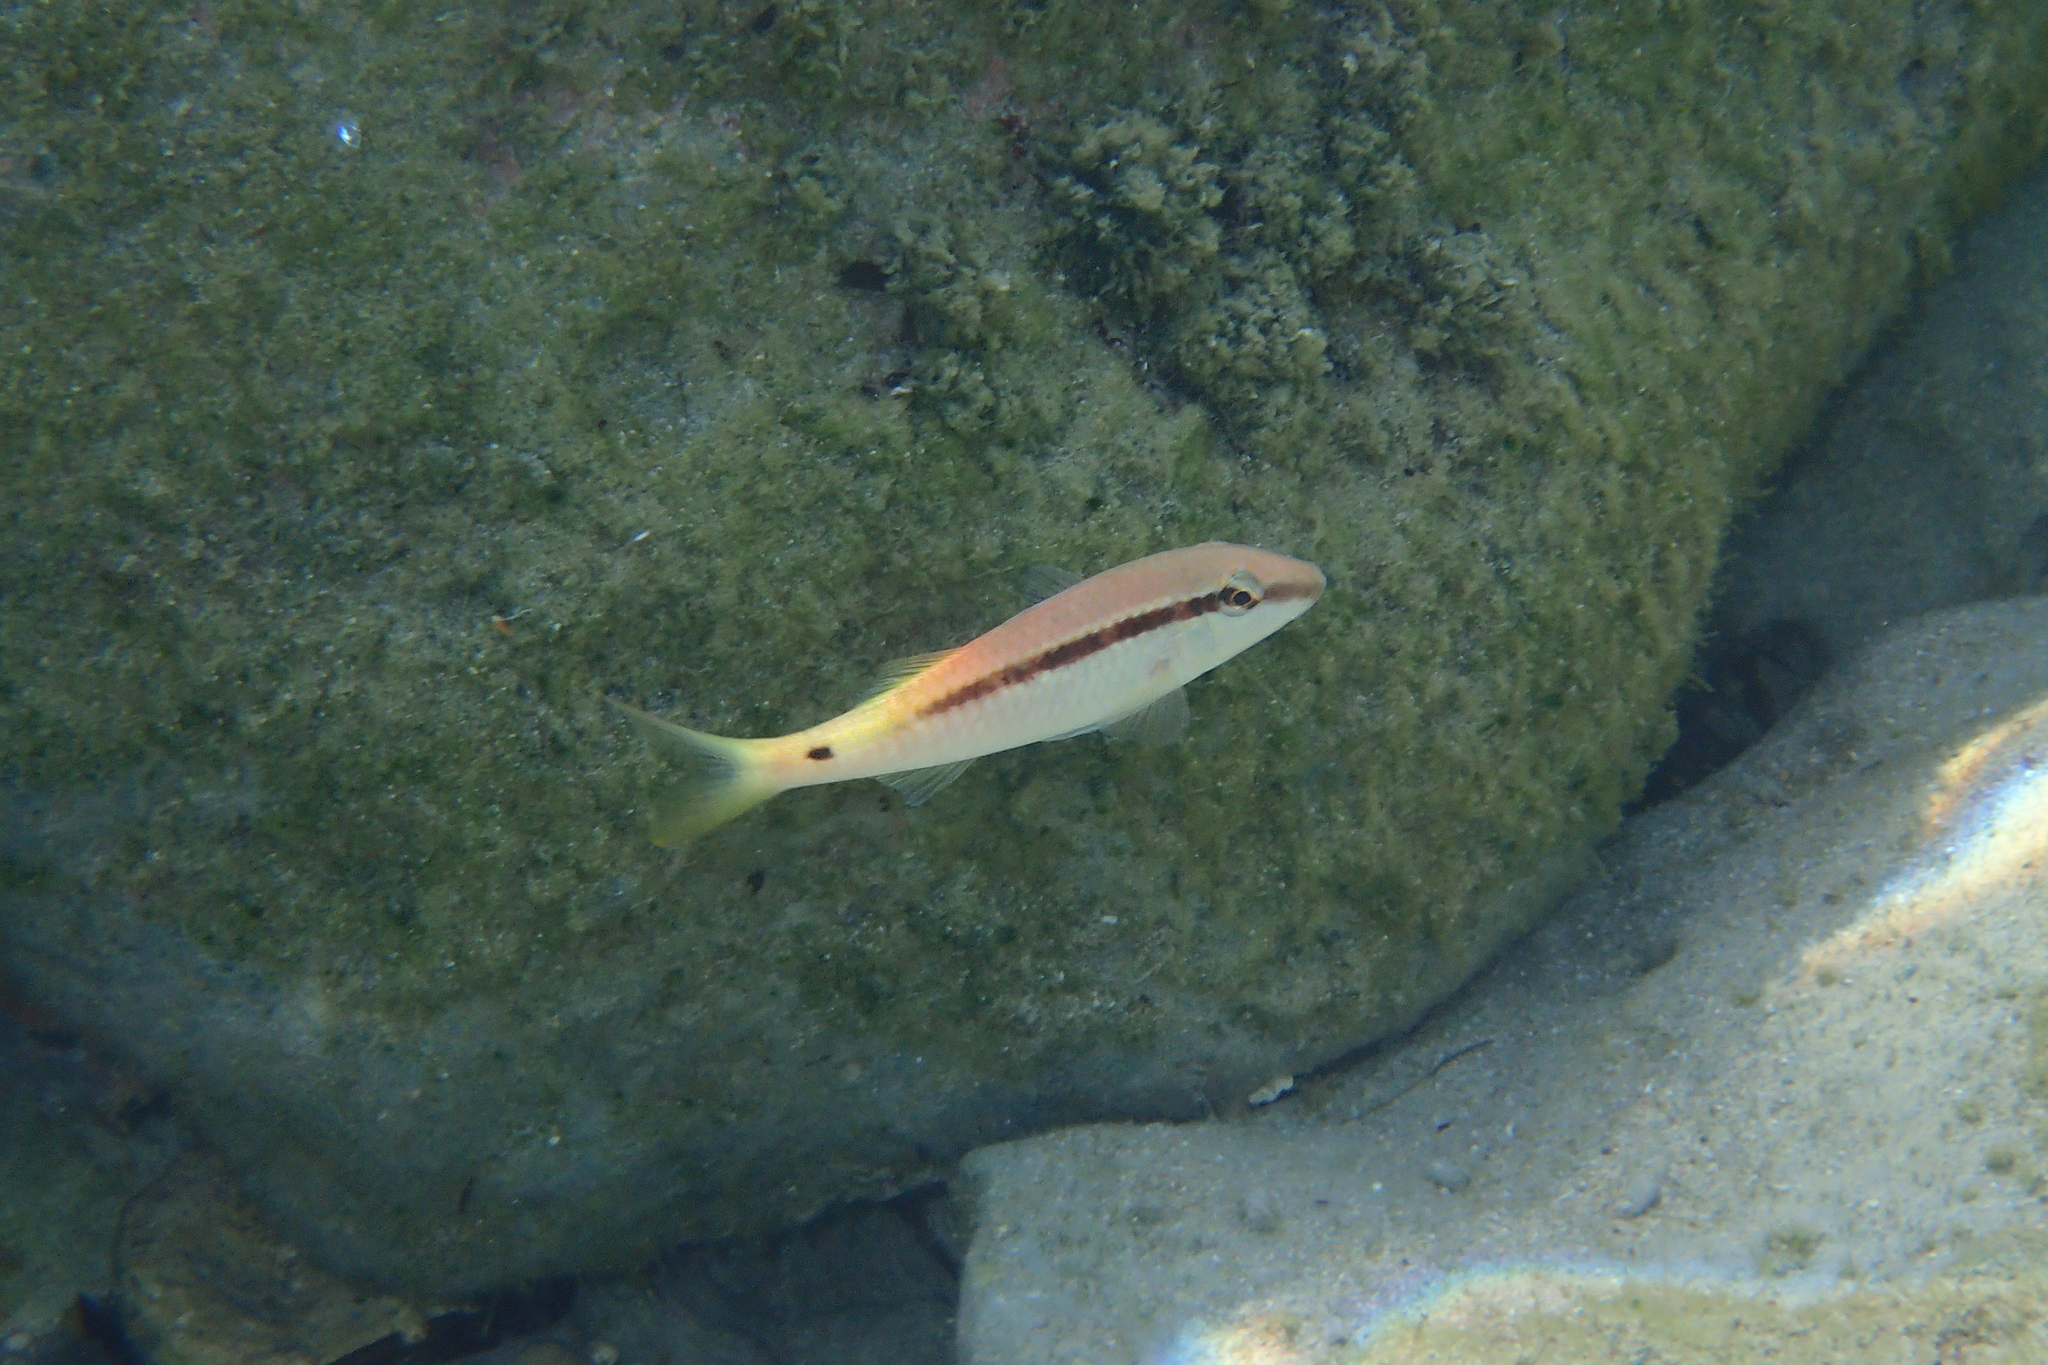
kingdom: Animalia
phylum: Chordata
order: Perciformes
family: Mullidae
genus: Parupeneus
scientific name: Parupeneus forsskali
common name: Red sea goatfish
